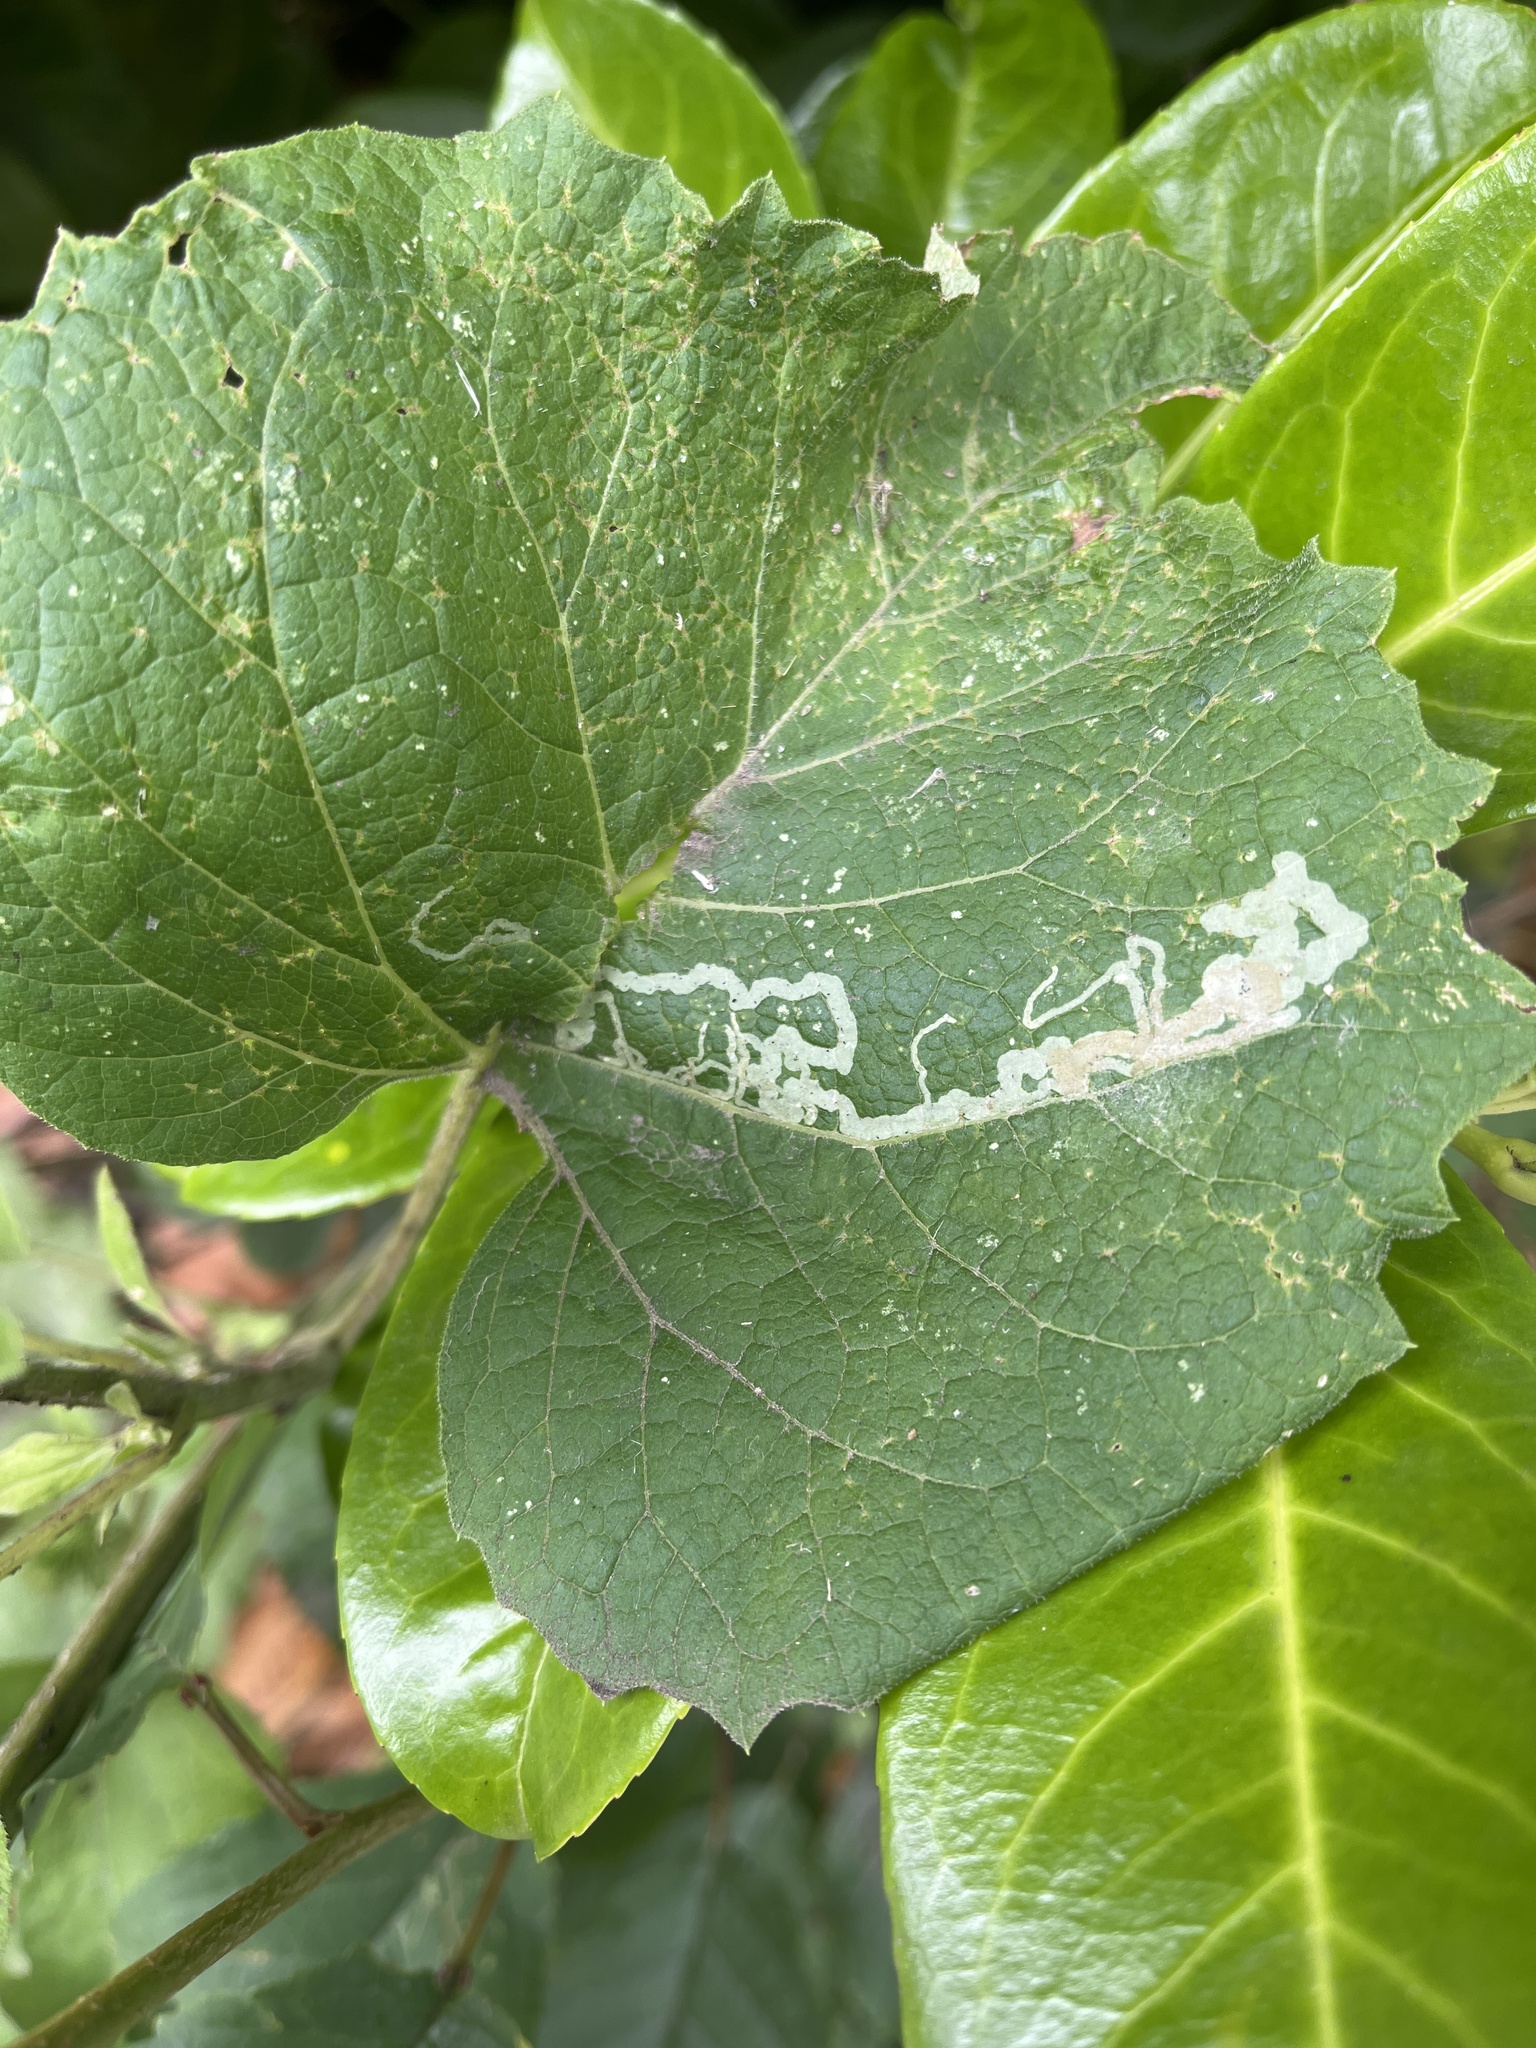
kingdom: Animalia
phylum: Arthropoda
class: Insecta
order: Diptera
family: Agromyzidae
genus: Phytomyza
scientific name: Phytomyza lappae
